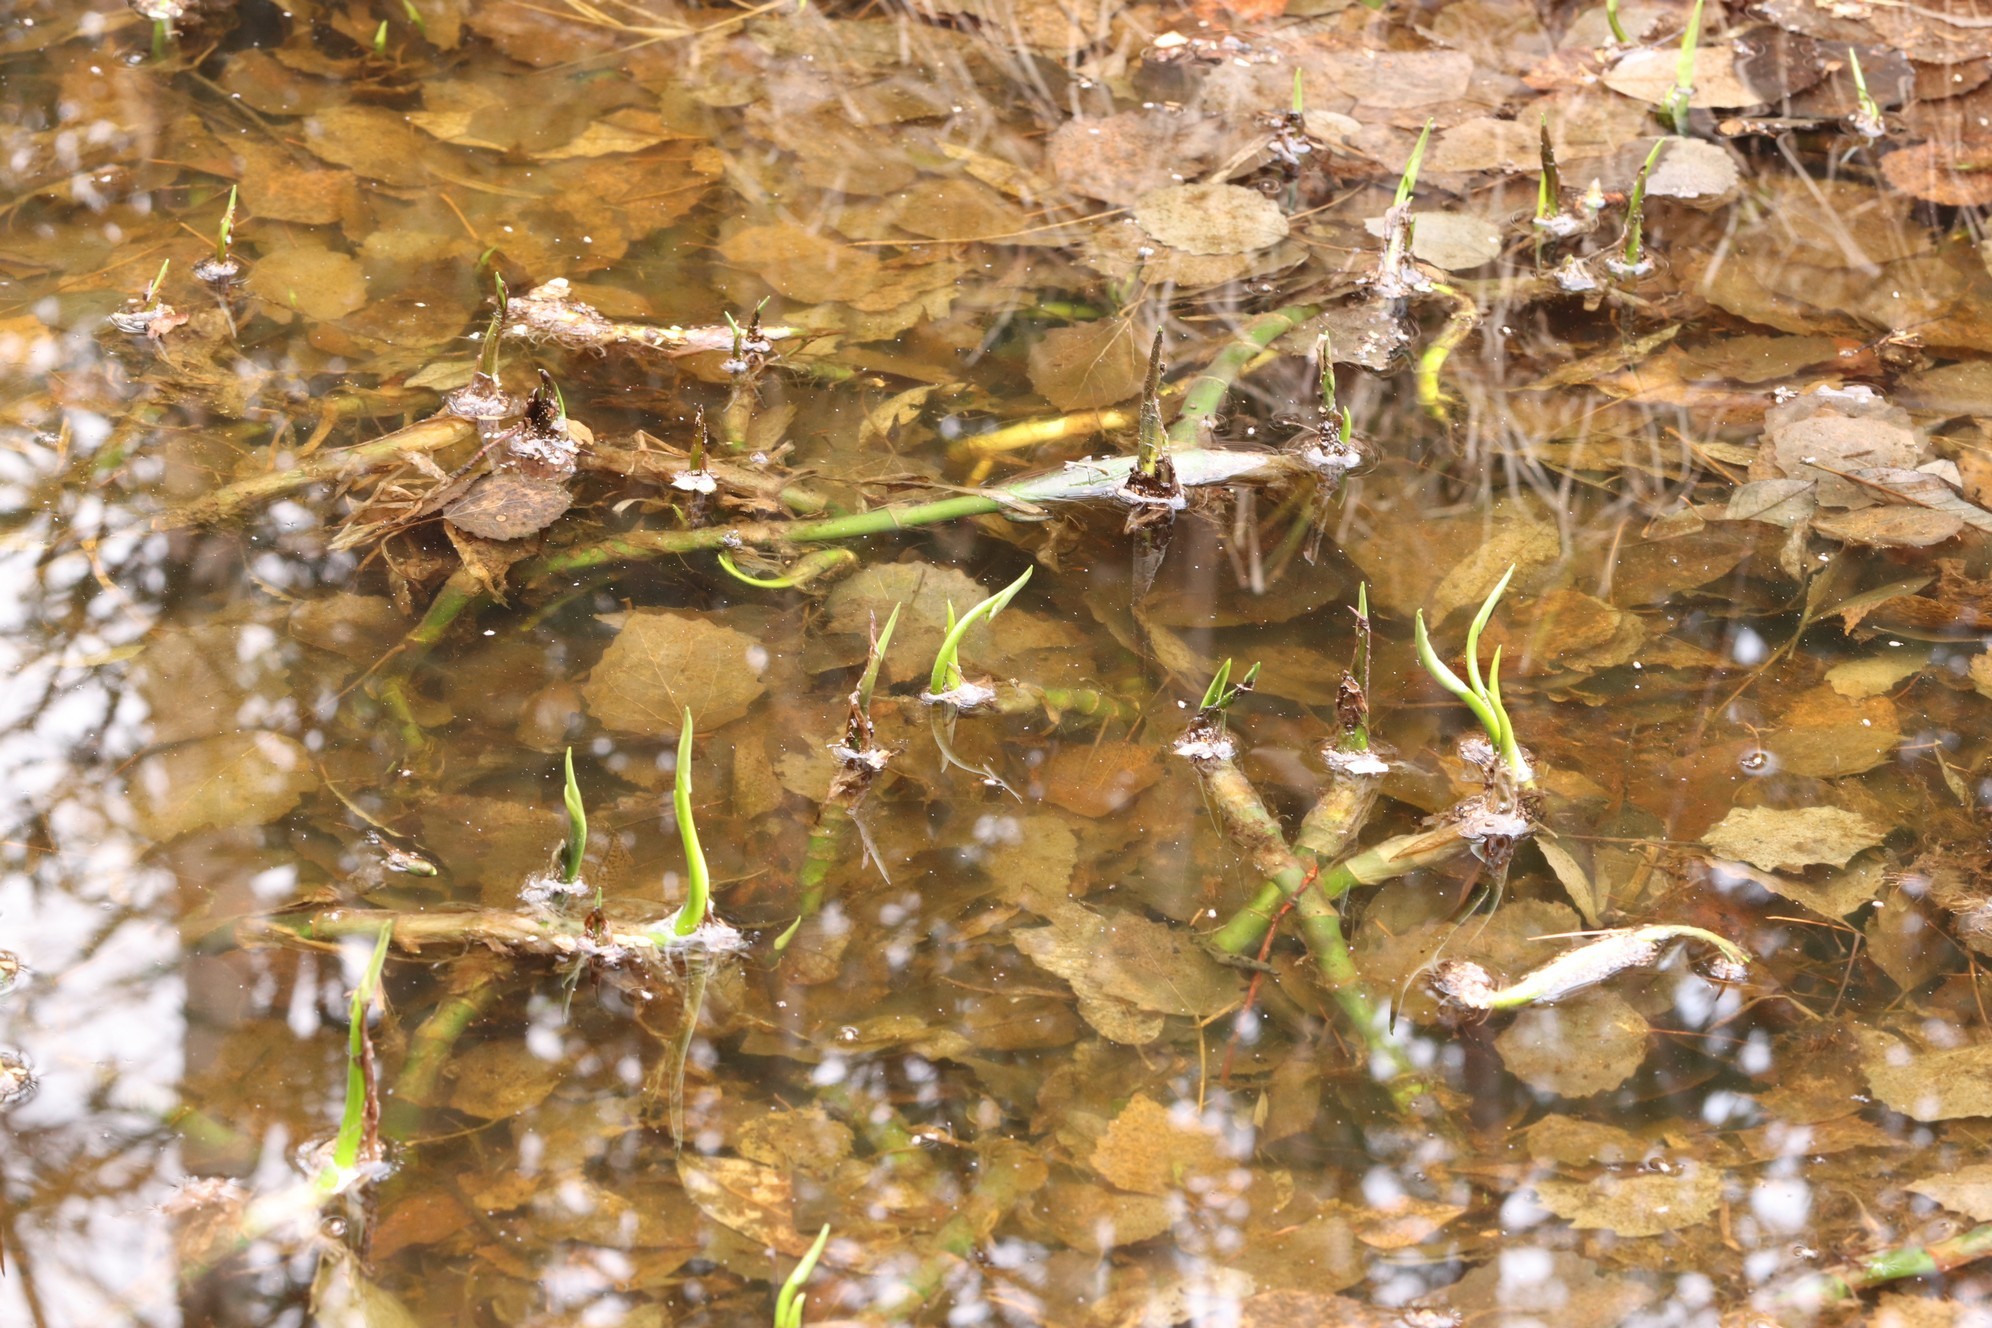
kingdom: Plantae
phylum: Tracheophyta
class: Liliopsida
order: Alismatales
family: Araceae
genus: Calla
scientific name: Calla palustris
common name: Bog arum
